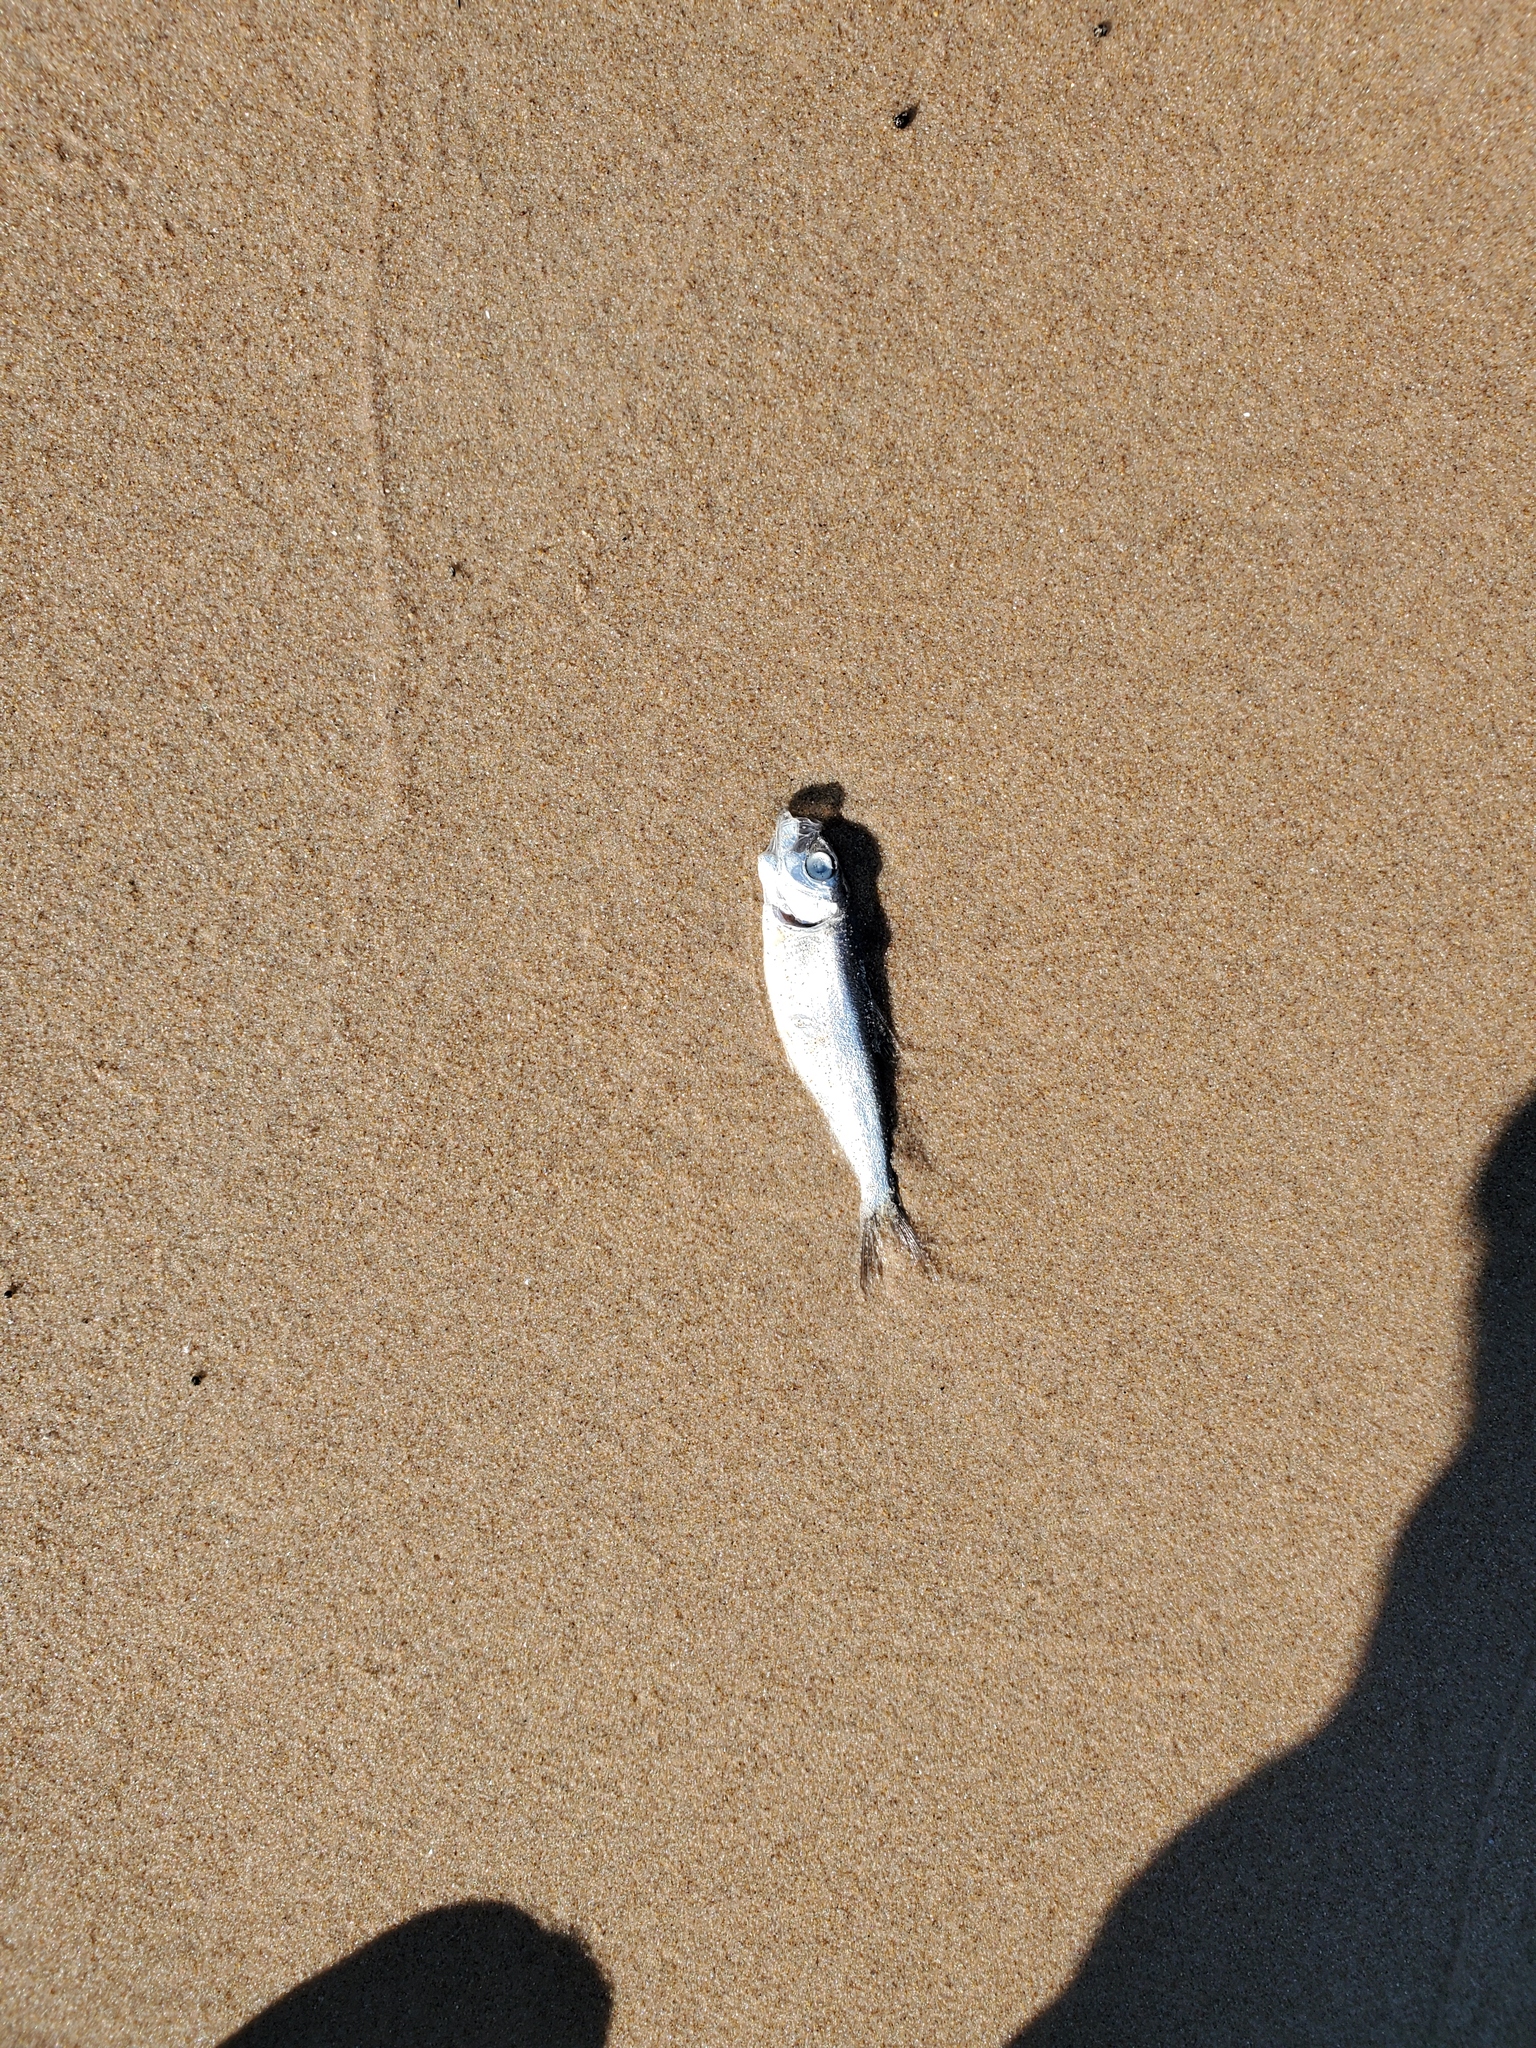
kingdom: Animalia
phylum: Chordata
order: Clupeiformes
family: Clupeidae
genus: Alosa
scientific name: Alosa pseudoharengus
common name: Alewife
